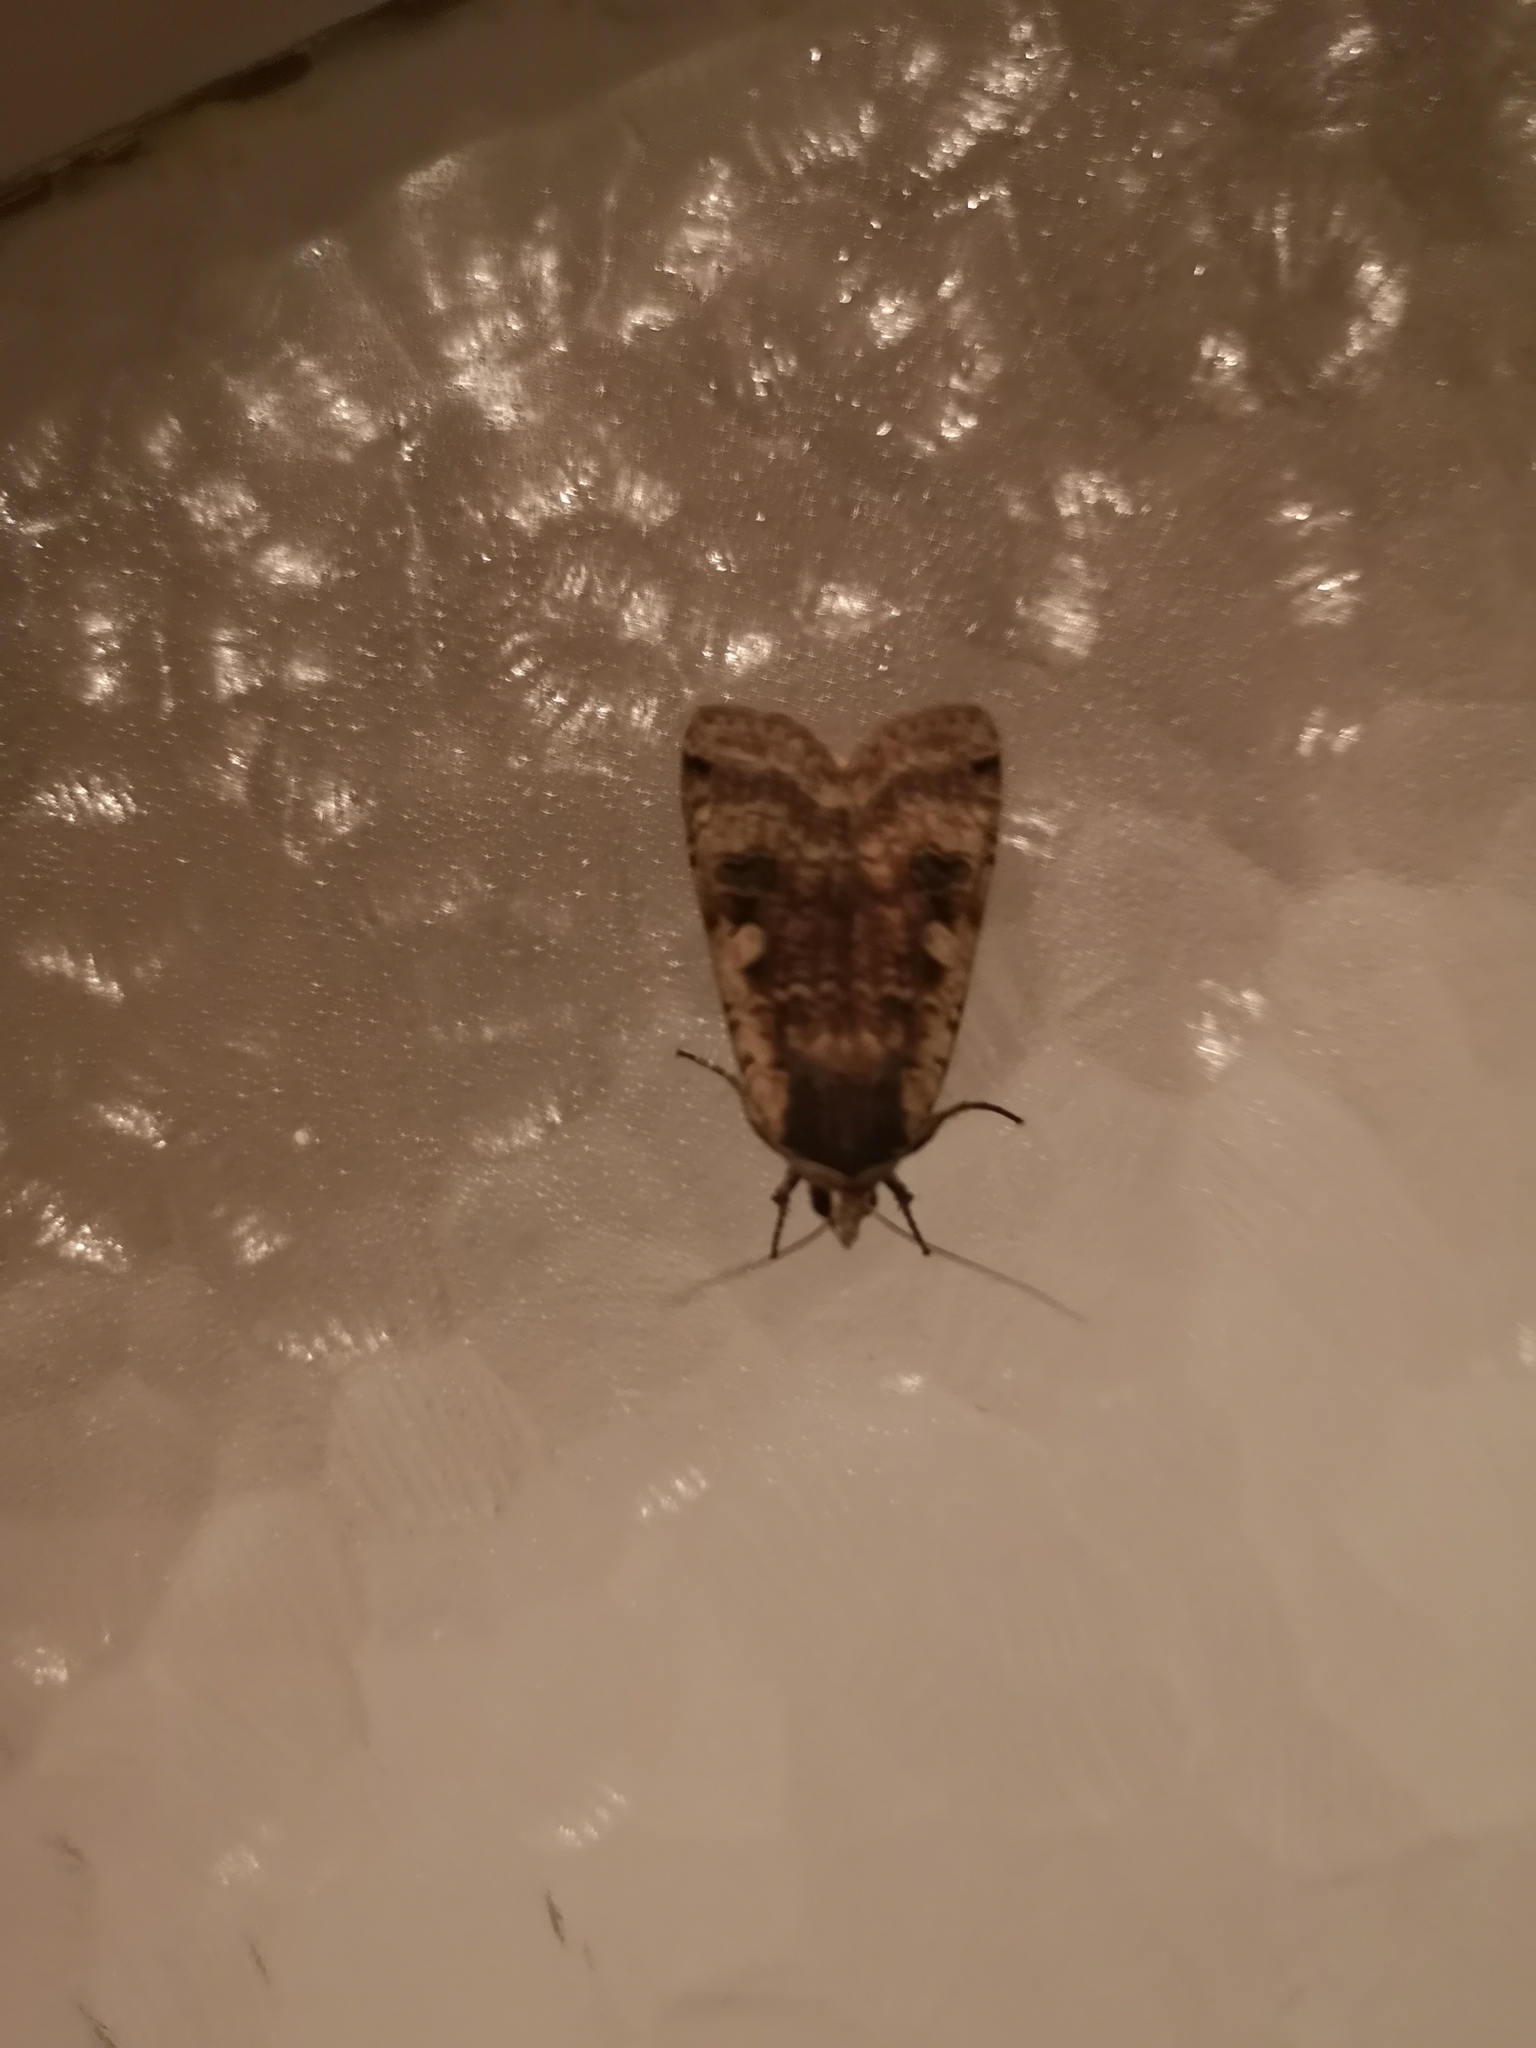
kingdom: Animalia
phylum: Arthropoda
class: Insecta
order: Lepidoptera
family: Noctuidae
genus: Noctua
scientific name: Noctua pronuba
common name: Large yellow underwing
